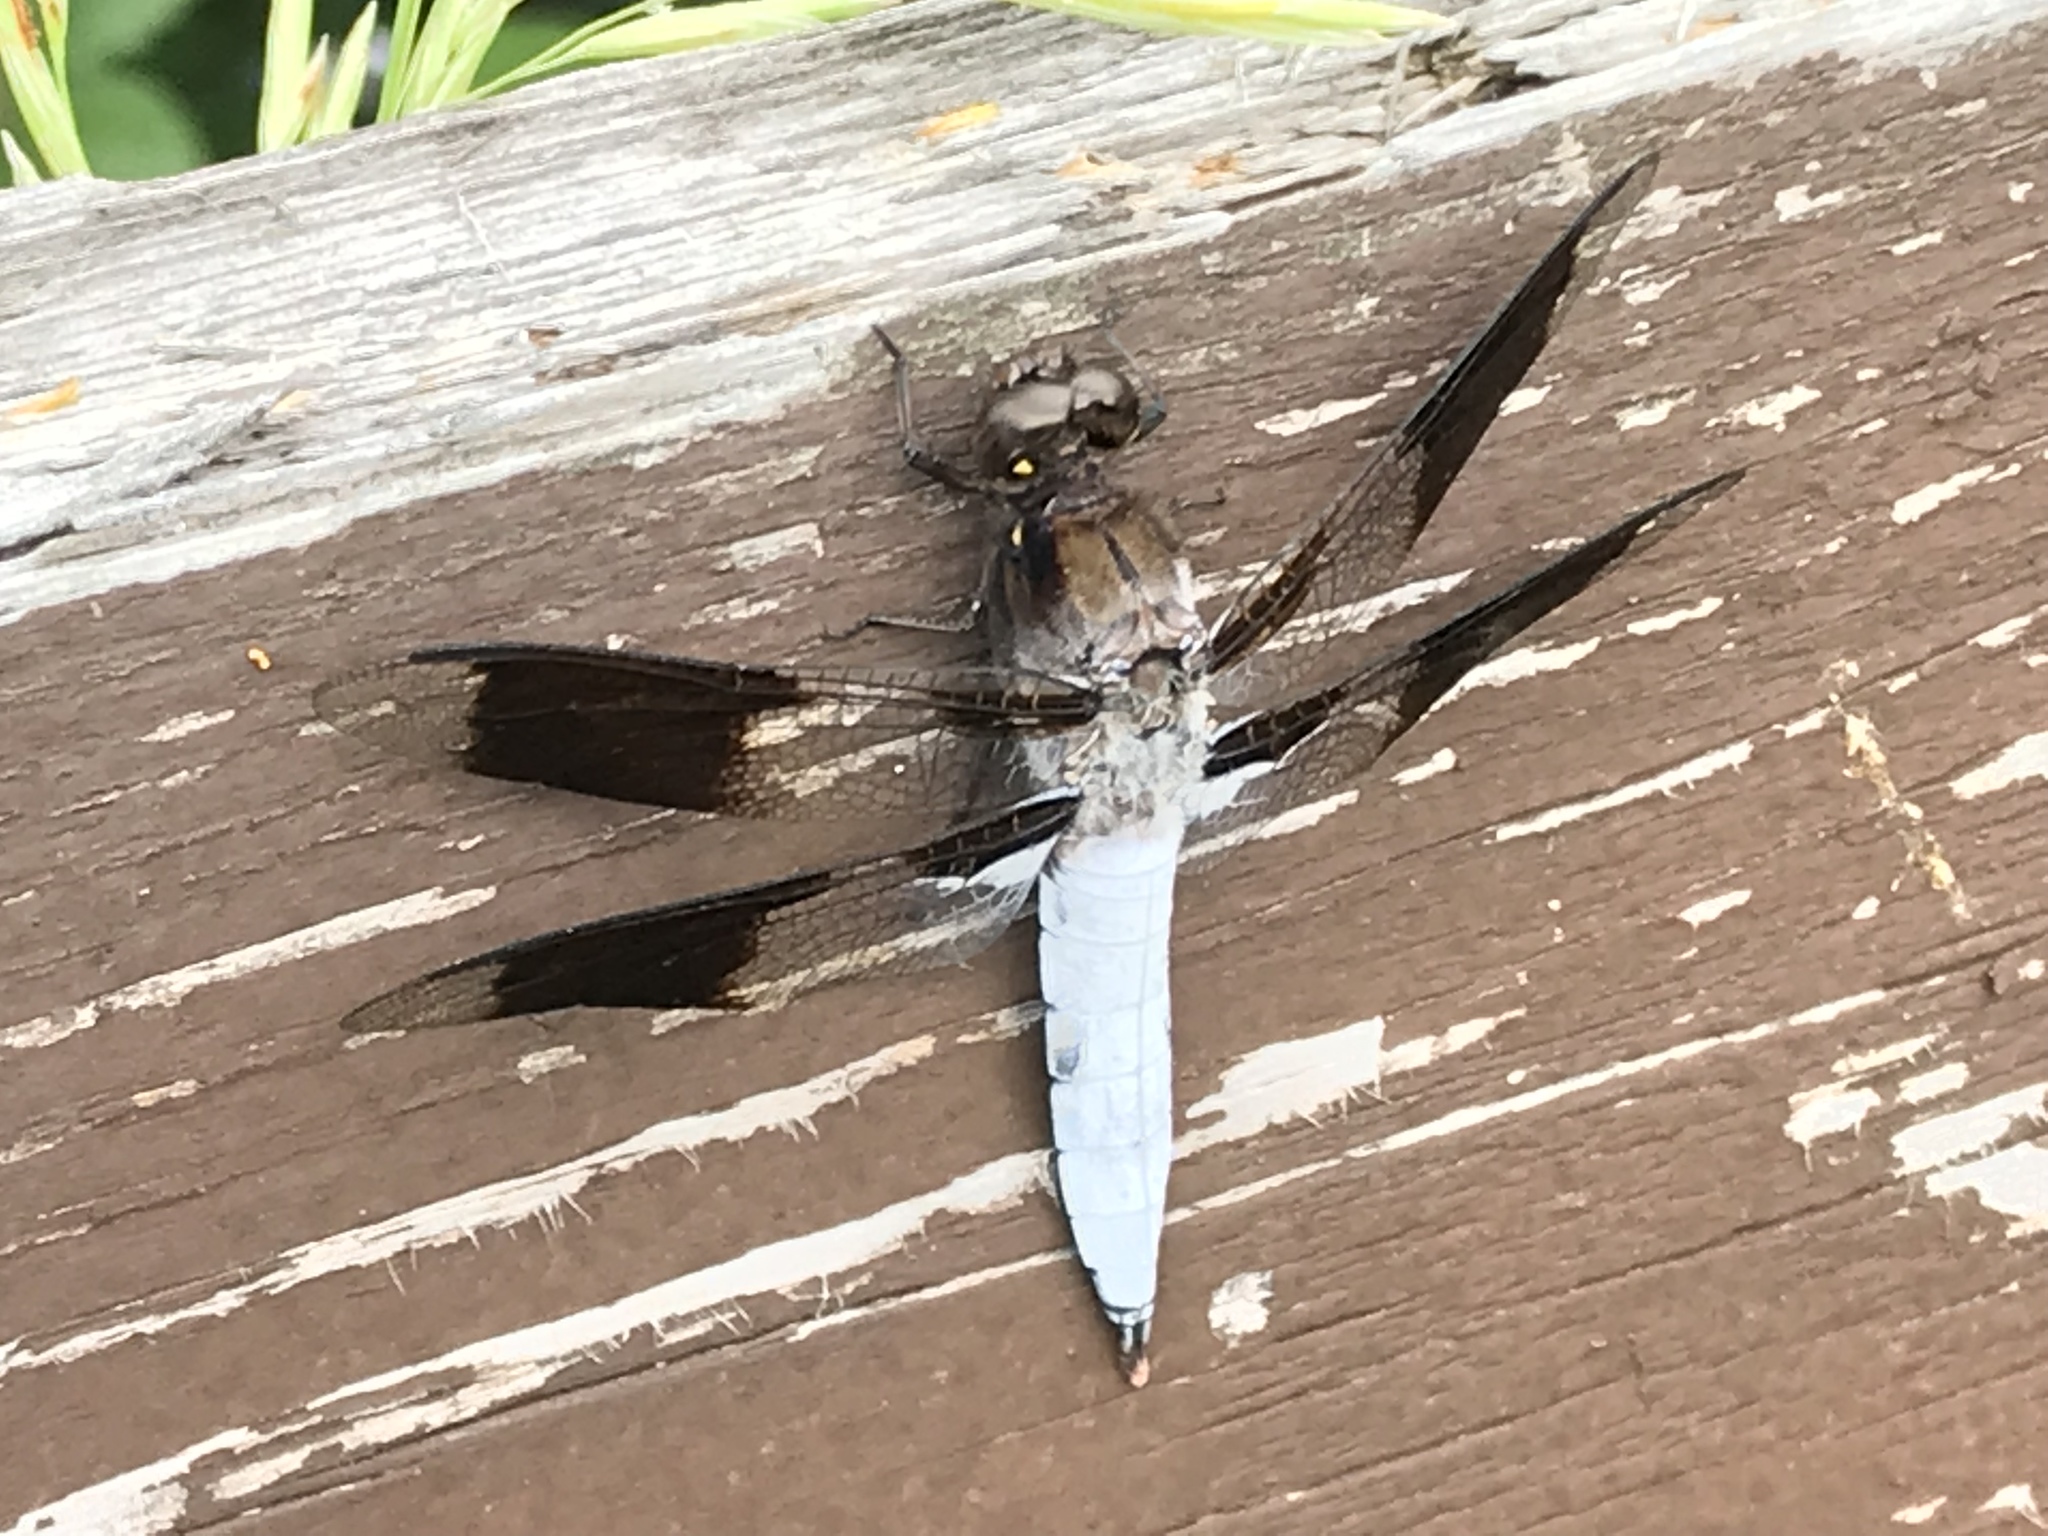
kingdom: Animalia
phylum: Arthropoda
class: Insecta
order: Odonata
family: Libellulidae
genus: Plathemis
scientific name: Plathemis lydia
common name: Common whitetail
